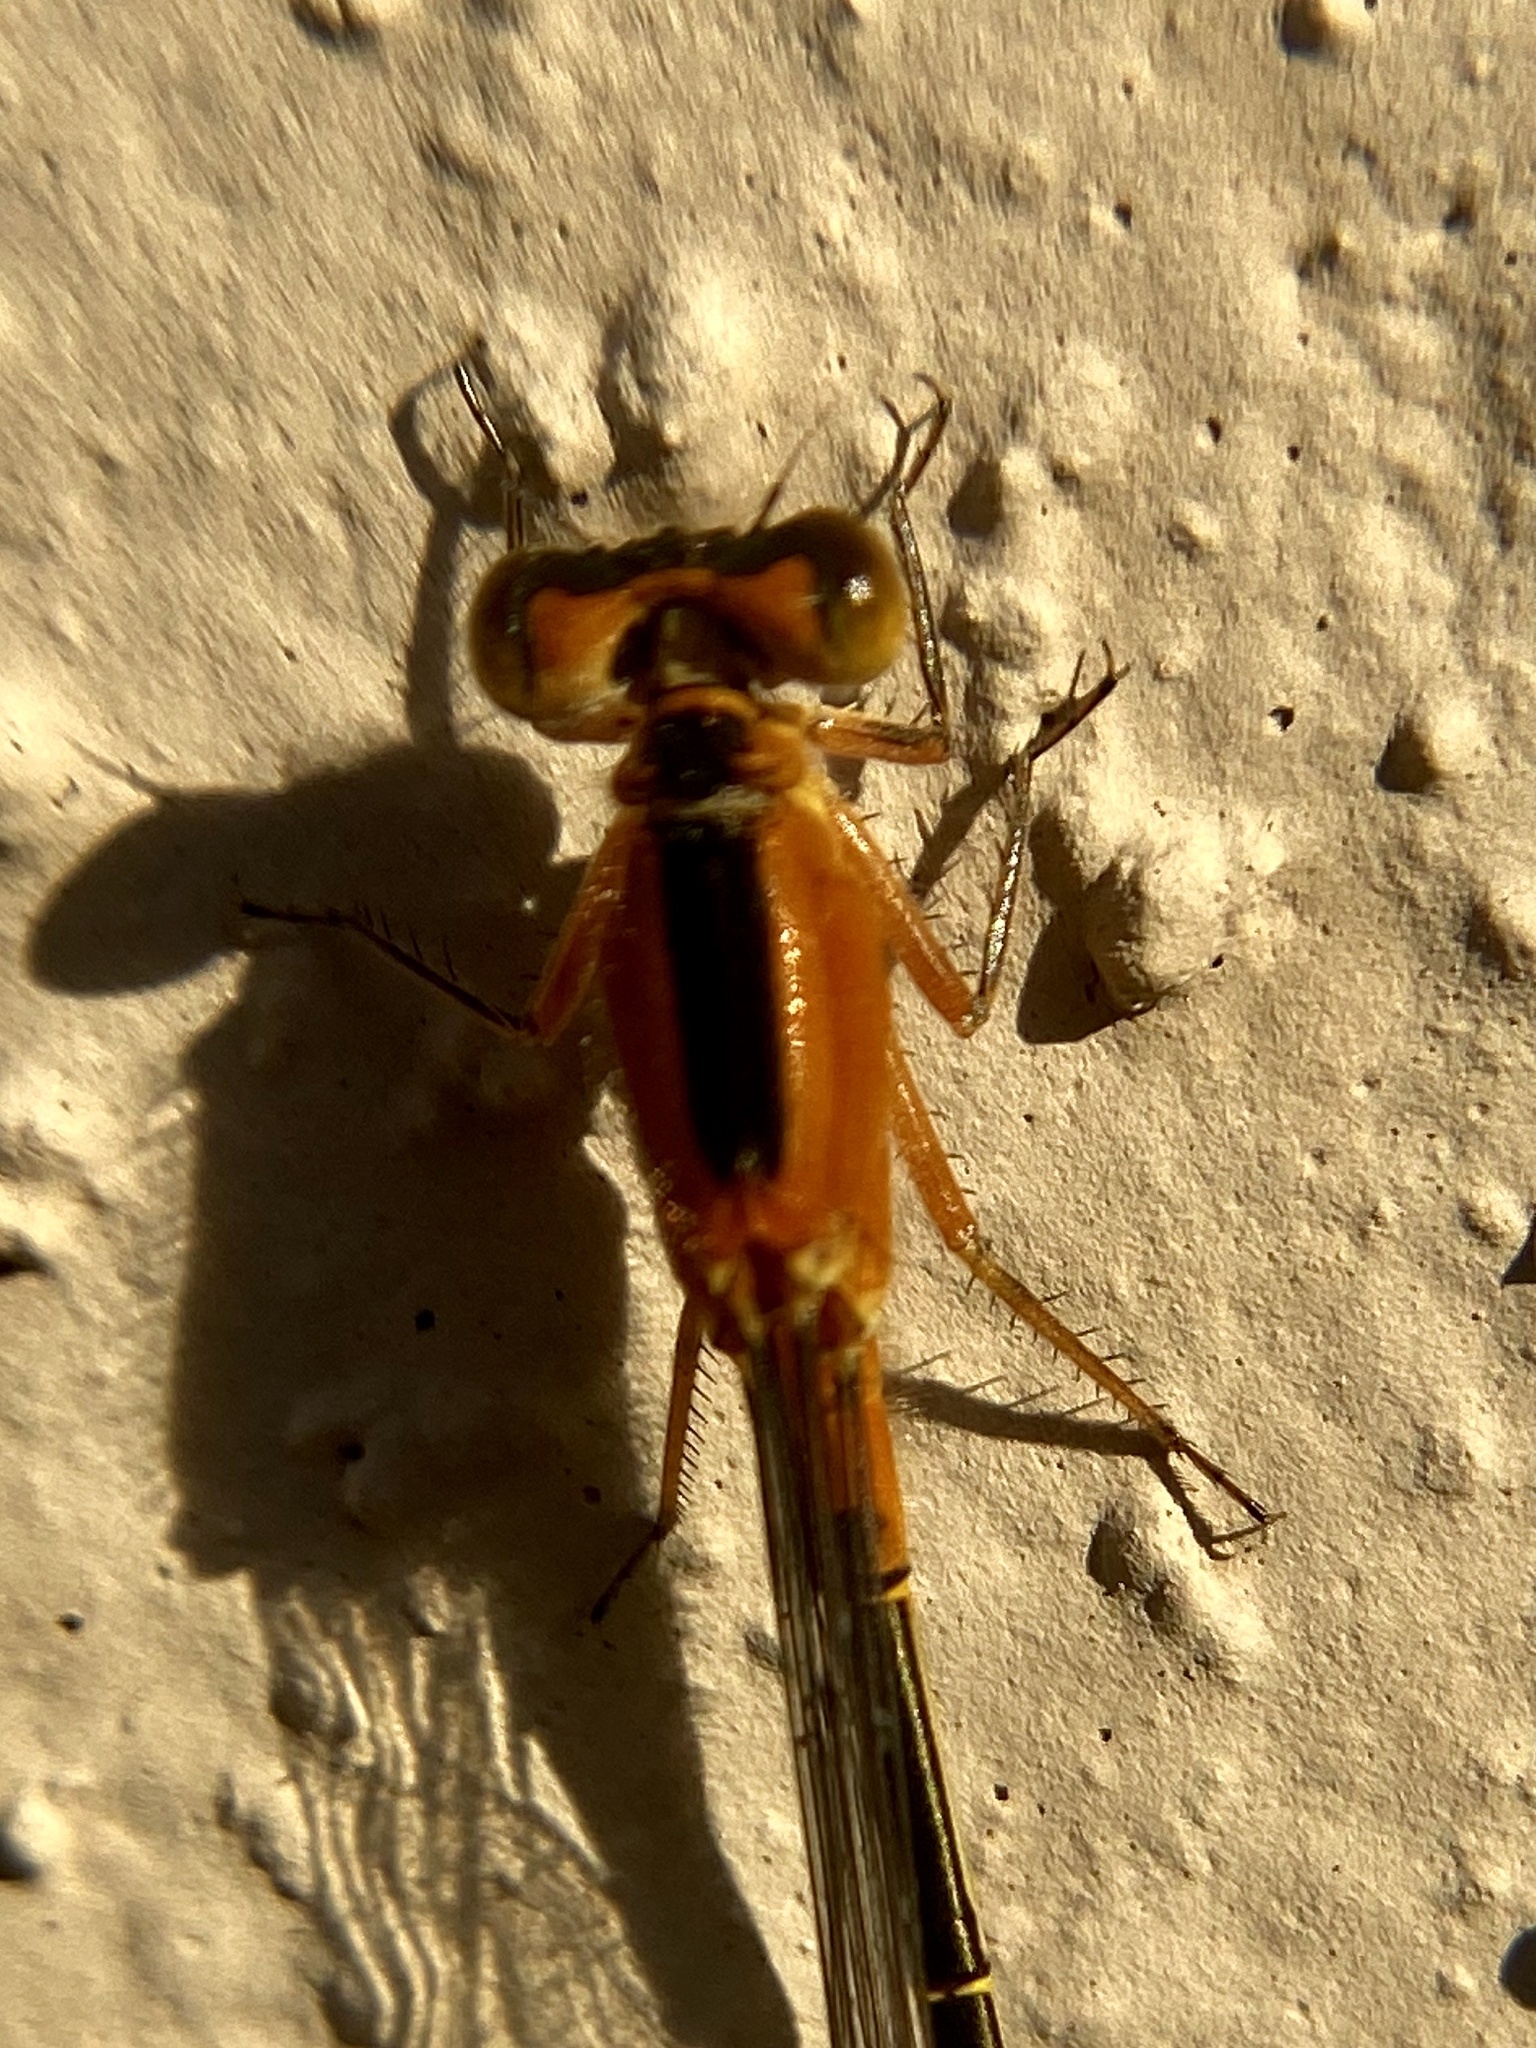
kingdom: Animalia
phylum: Arthropoda
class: Insecta
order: Odonata
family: Coenagrionidae
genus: Ischnura
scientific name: Ischnura ramburii
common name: Rambur's forktail
